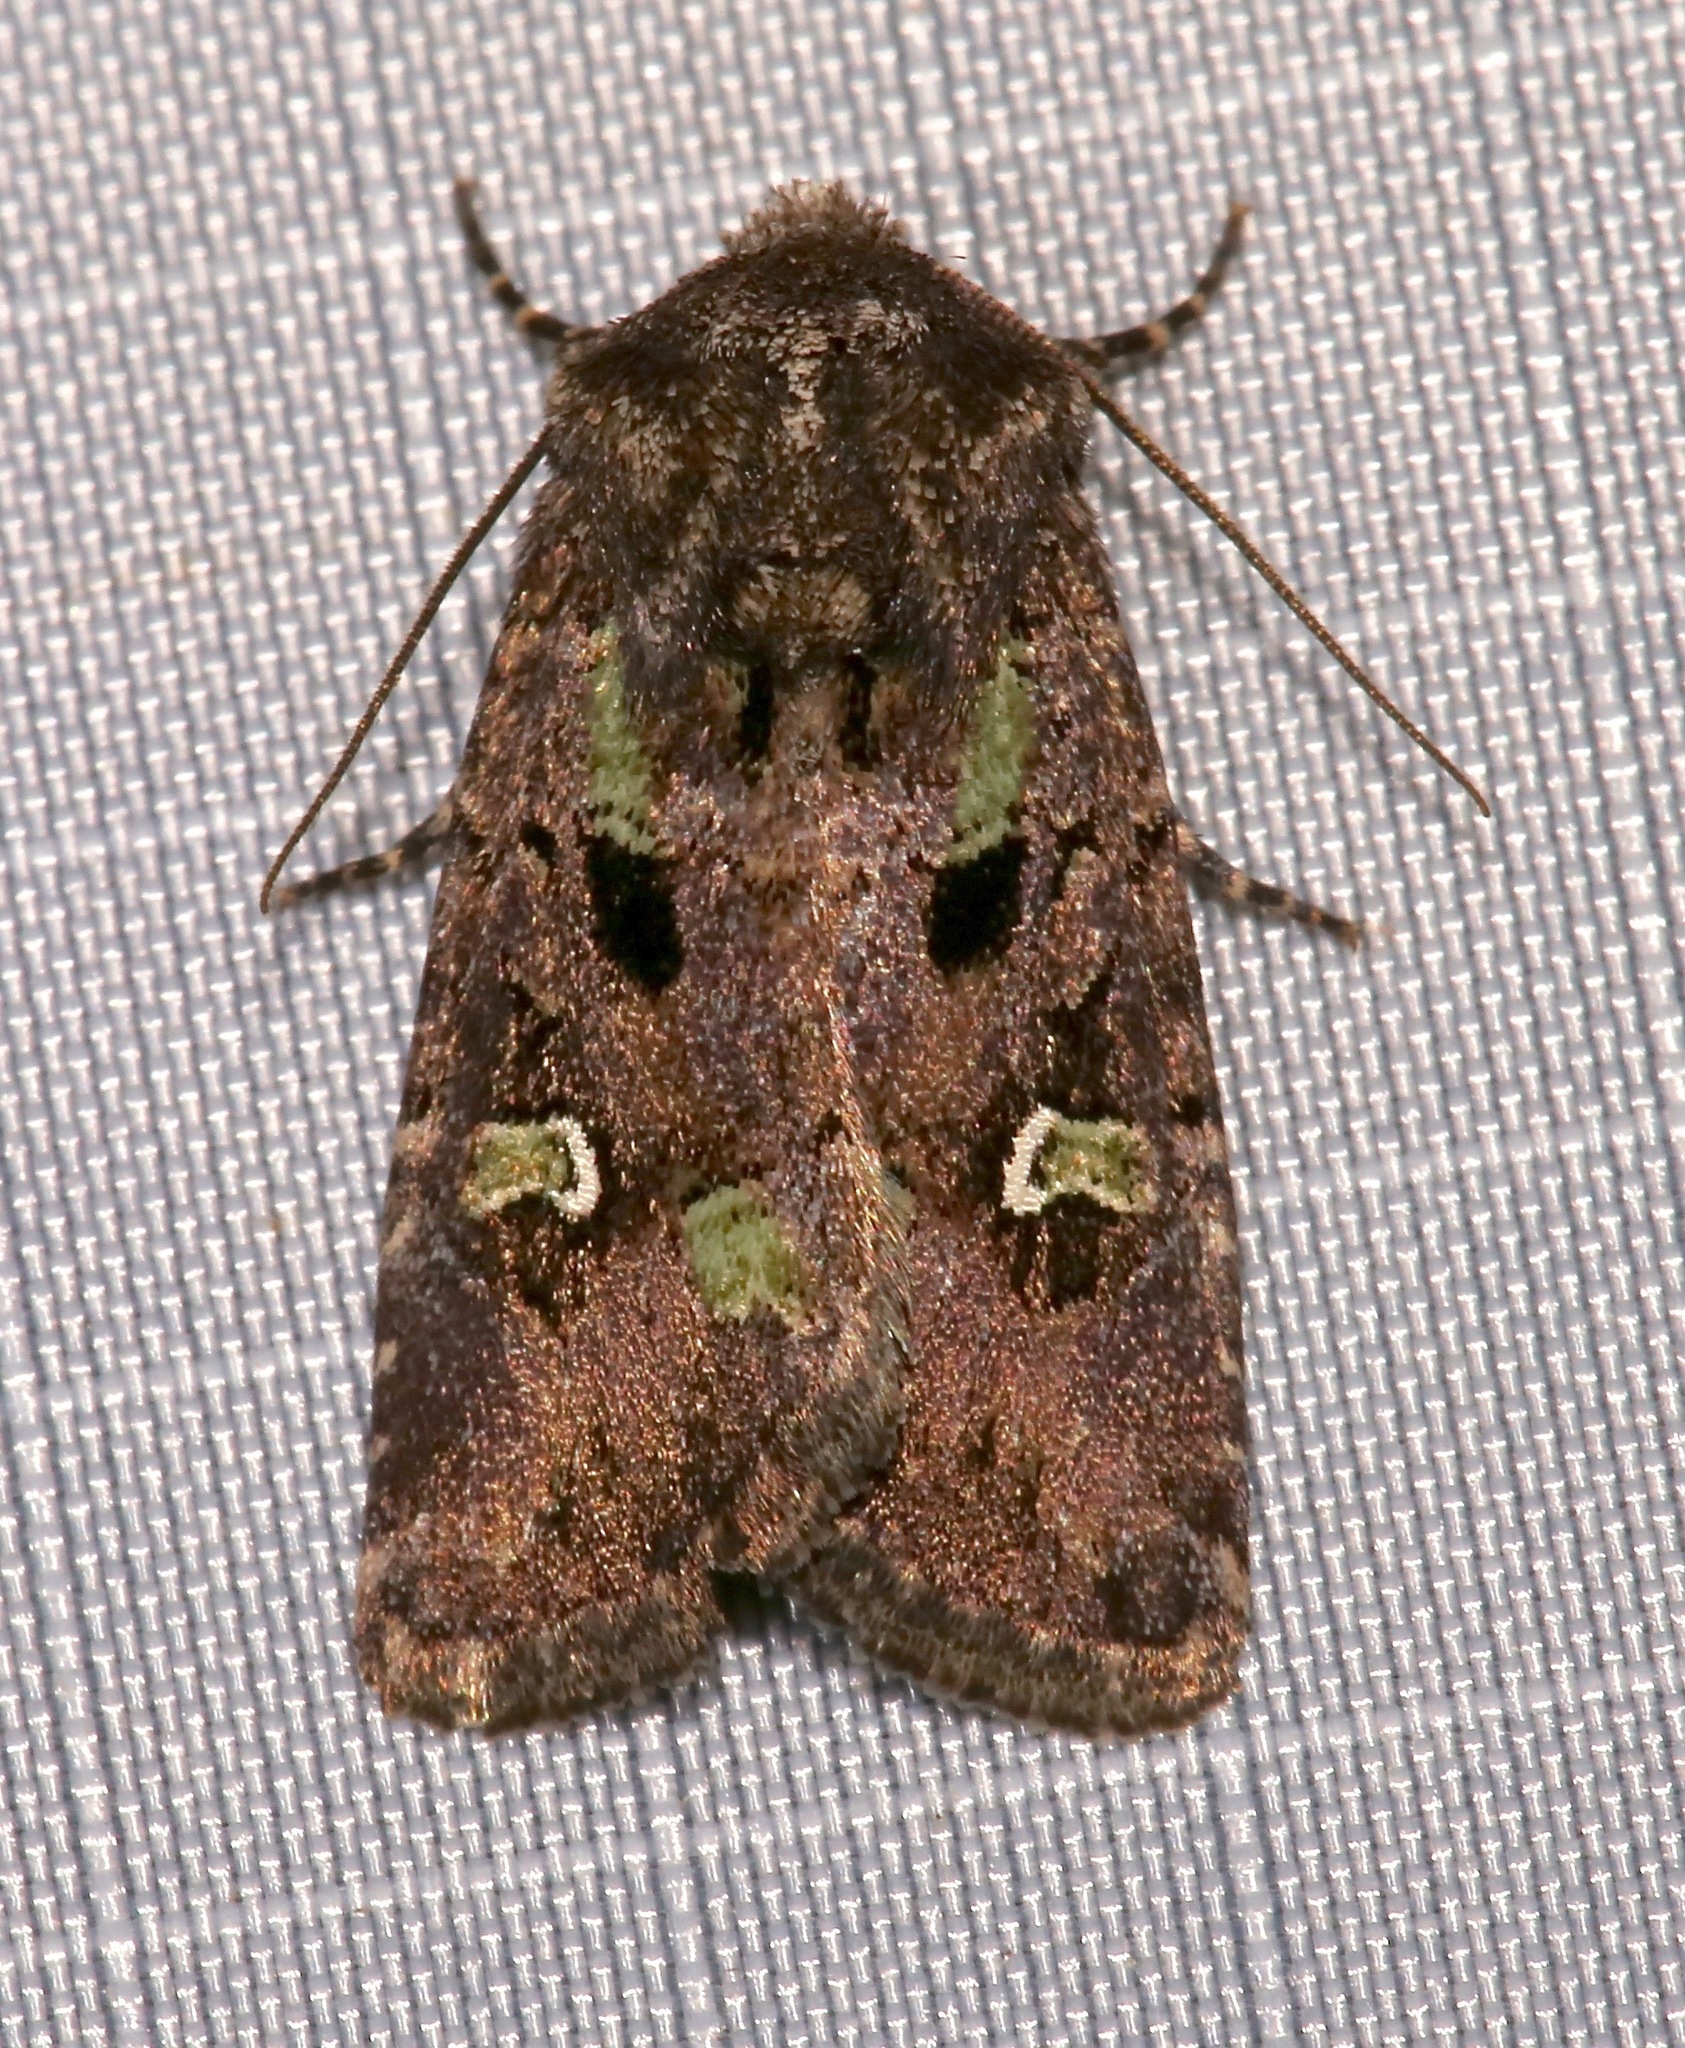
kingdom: Animalia
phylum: Arthropoda
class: Insecta
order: Lepidoptera
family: Noctuidae
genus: Lacinipolia
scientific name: Lacinipolia renigera
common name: Kidney-spotted minor
